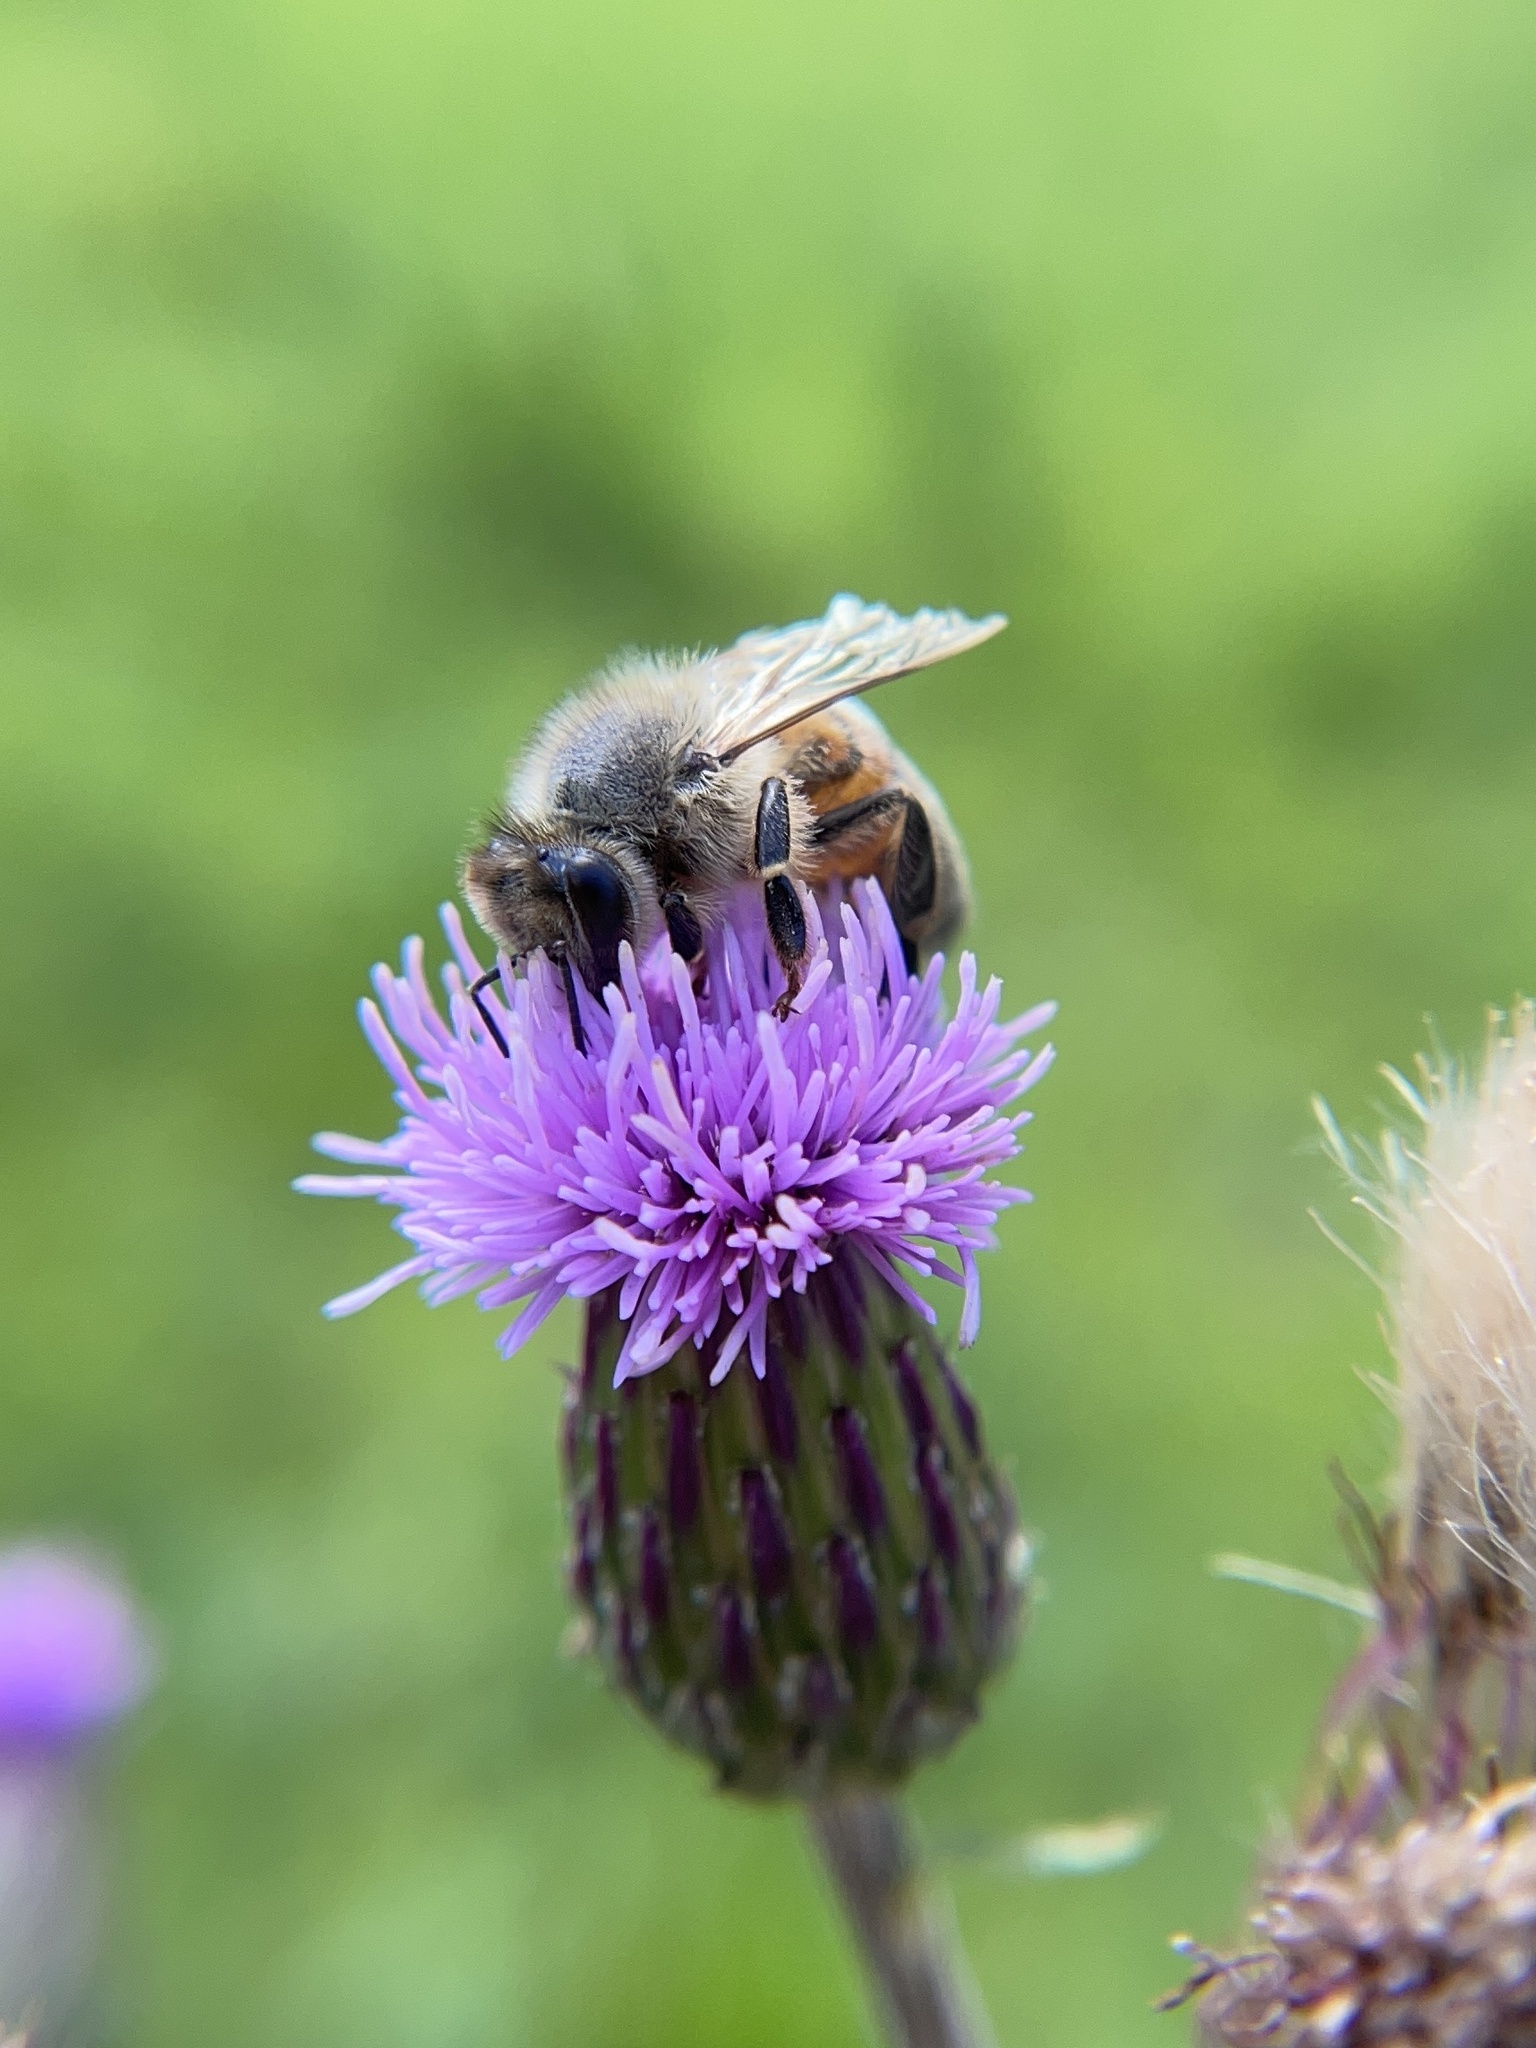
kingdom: Animalia
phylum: Arthropoda
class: Insecta
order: Hymenoptera
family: Apidae
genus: Apis
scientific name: Apis mellifera
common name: Honey bee
